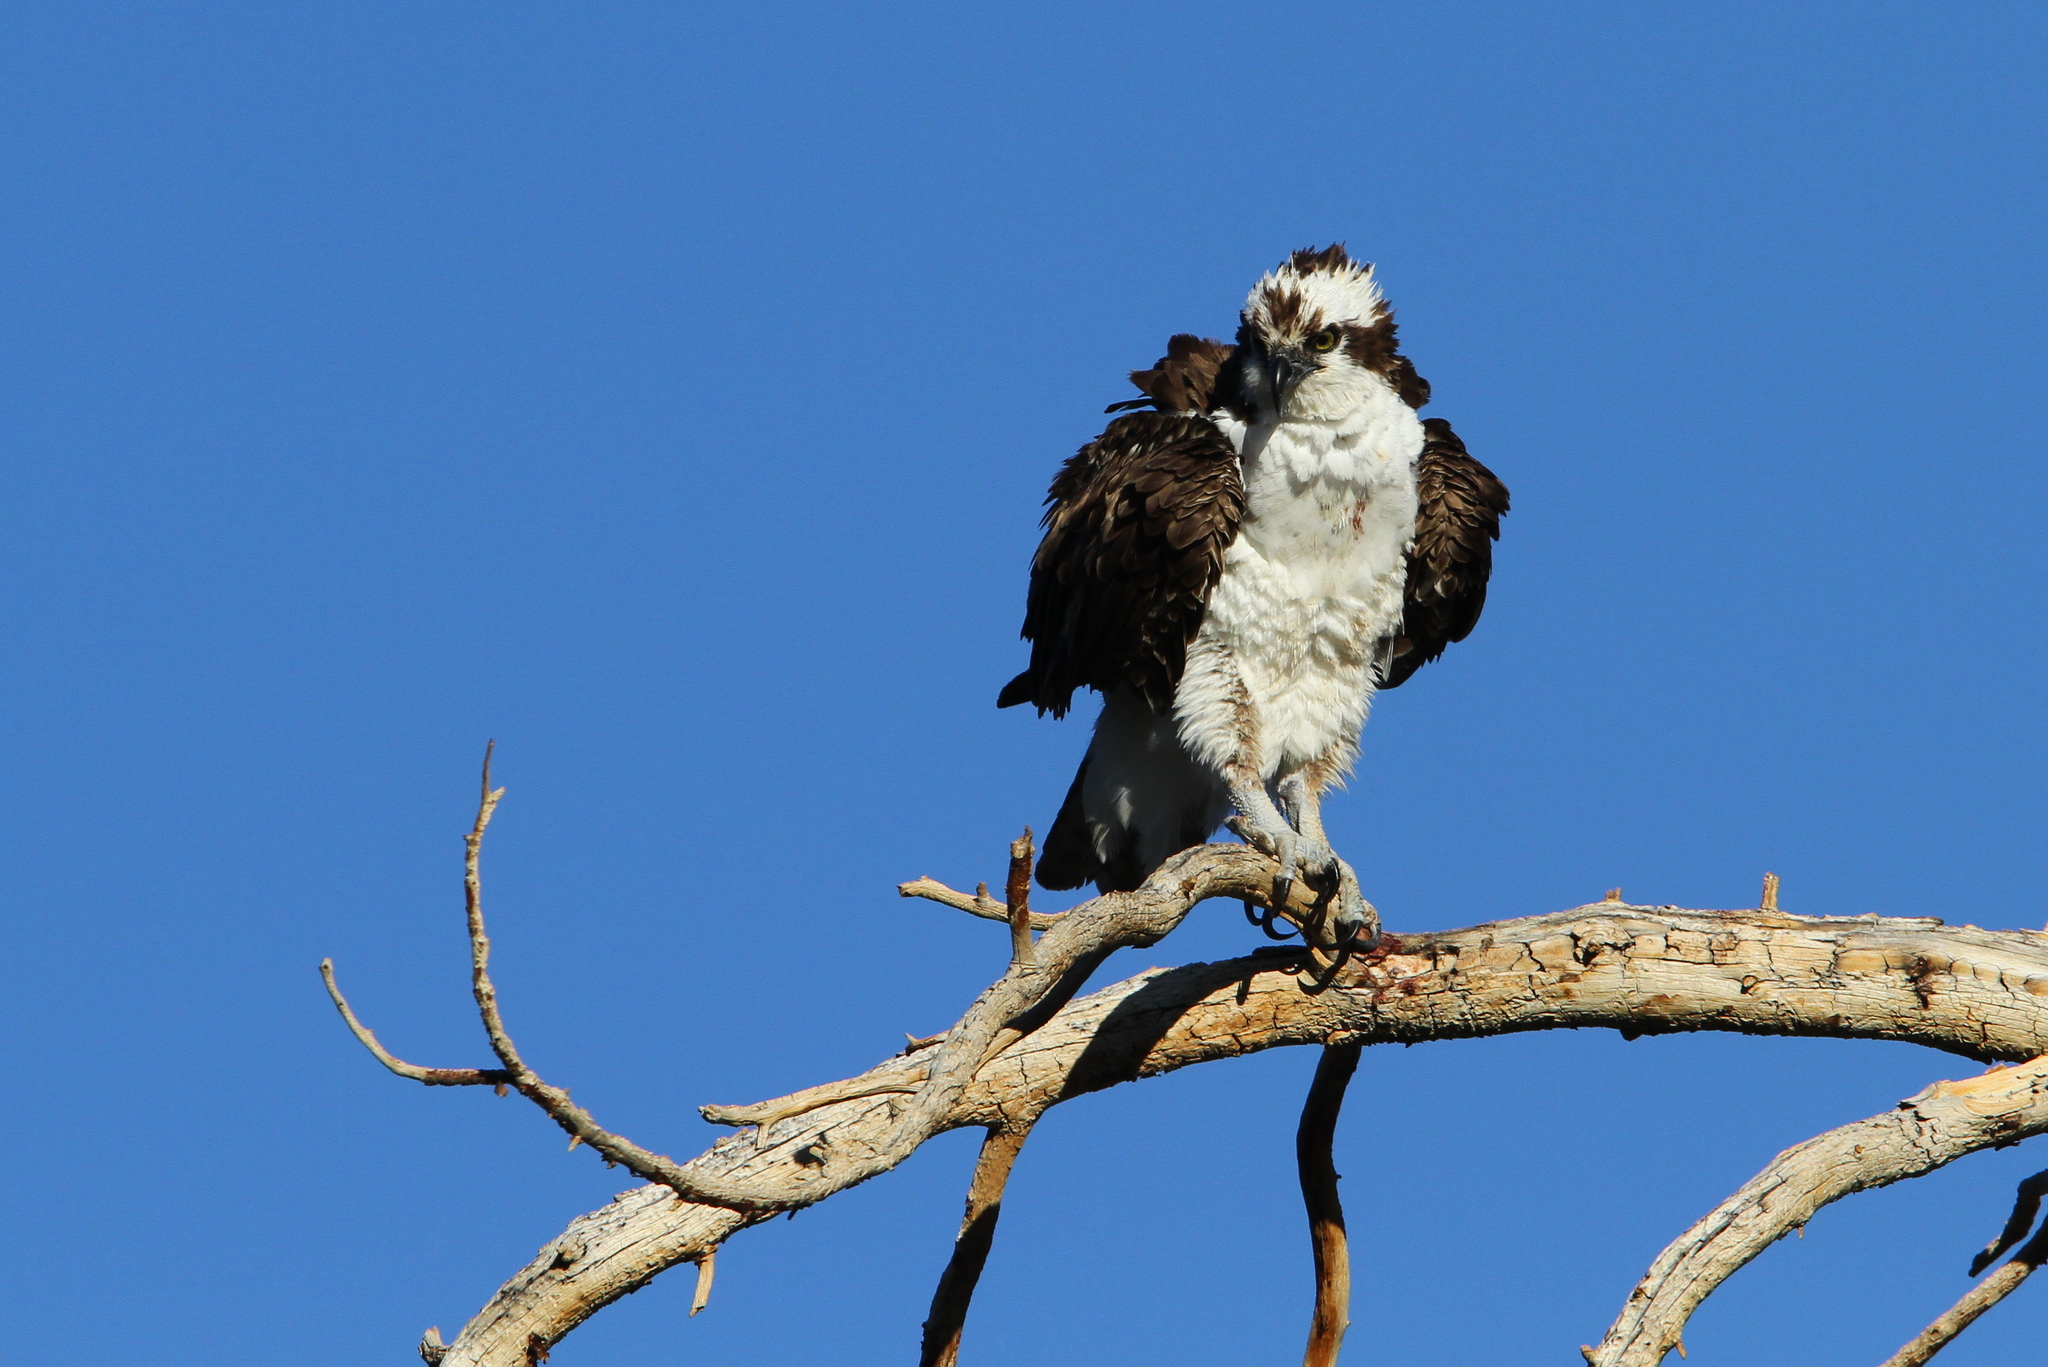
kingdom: Animalia
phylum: Chordata
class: Aves
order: Accipitriformes
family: Pandionidae
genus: Pandion
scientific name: Pandion haliaetus
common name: Osprey
